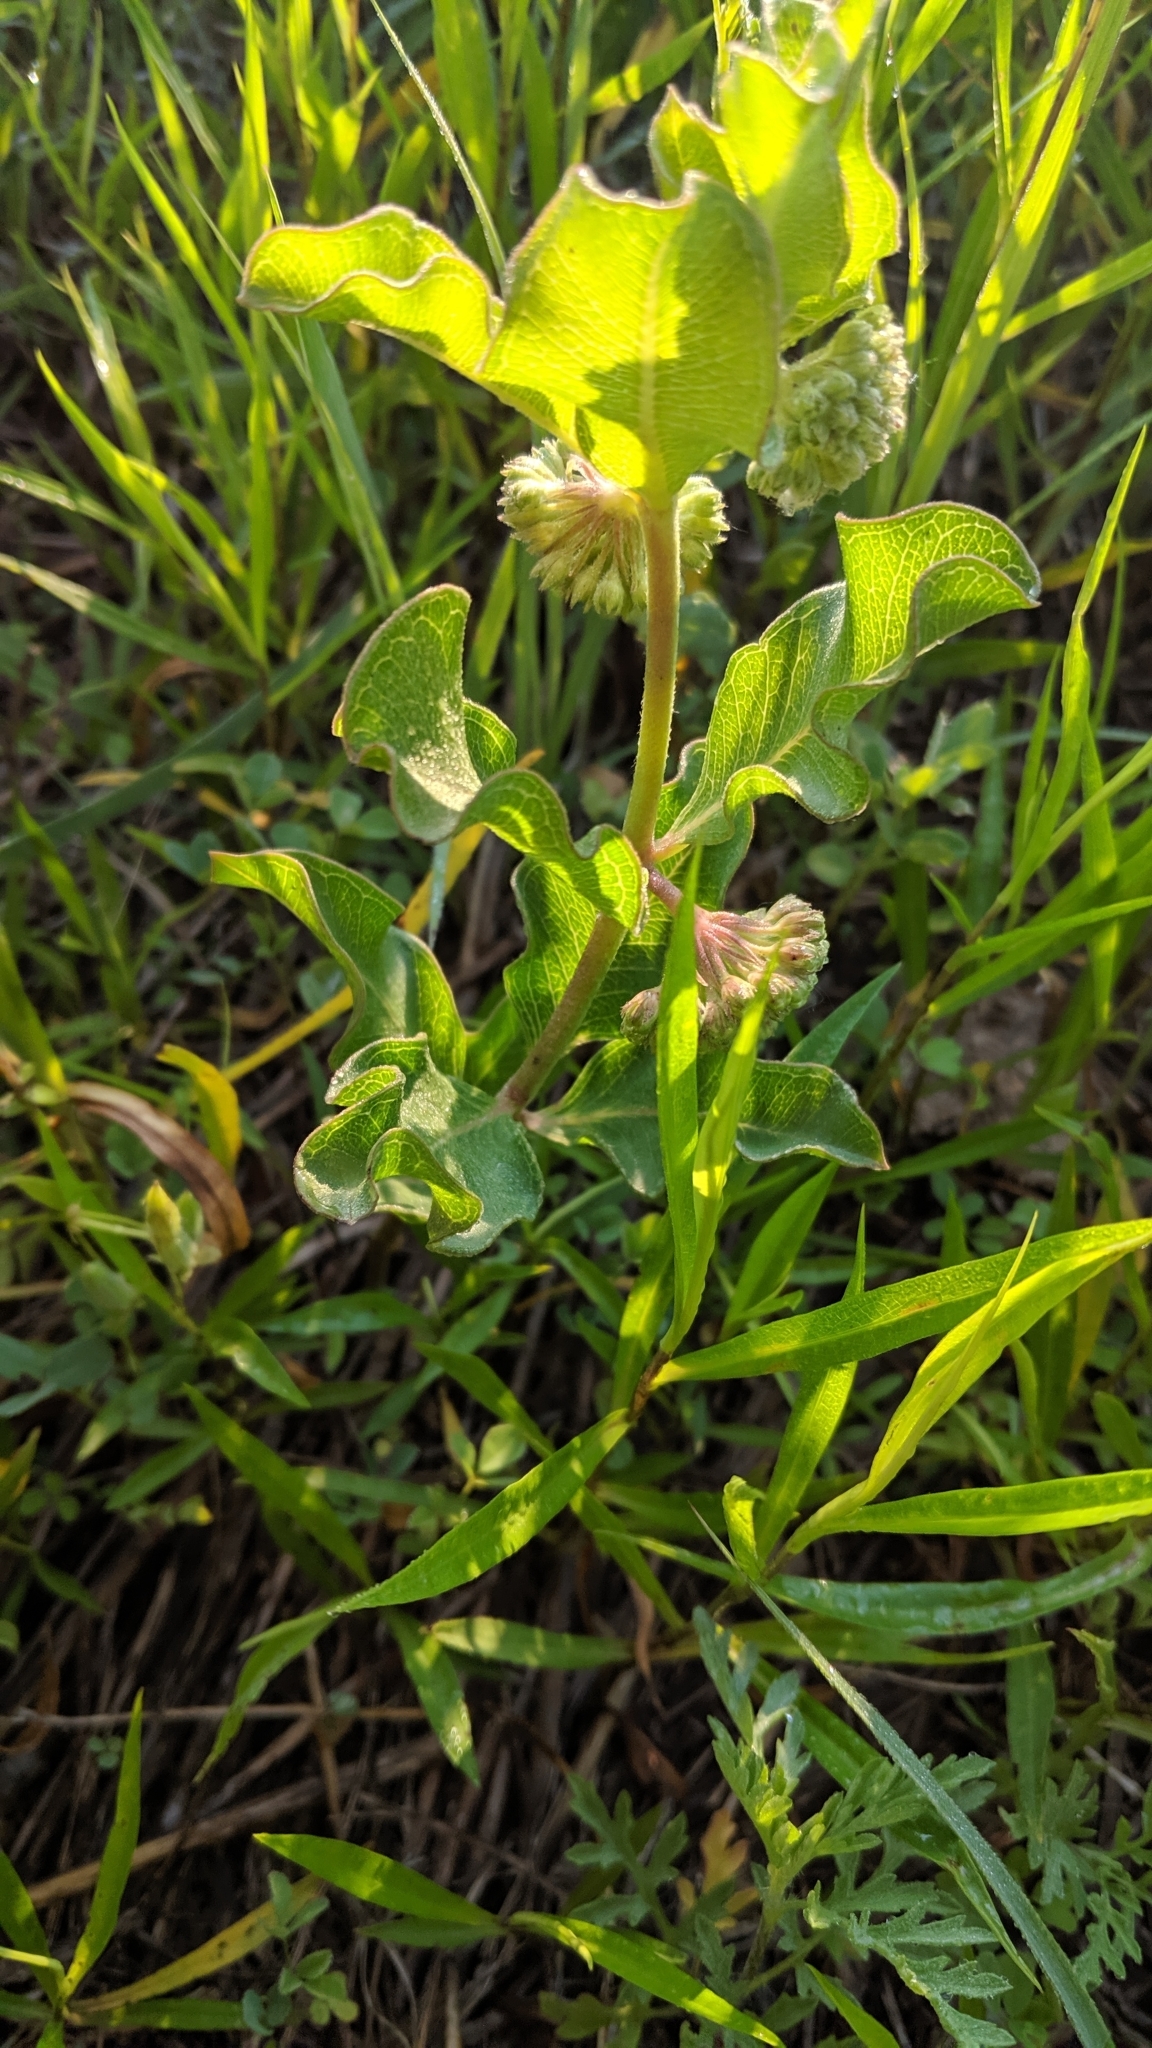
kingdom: Plantae
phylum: Tracheophyta
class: Magnoliopsida
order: Gentianales
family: Apocynaceae
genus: Asclepias
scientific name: Asclepias viridiflora
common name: Green comet milkweed
